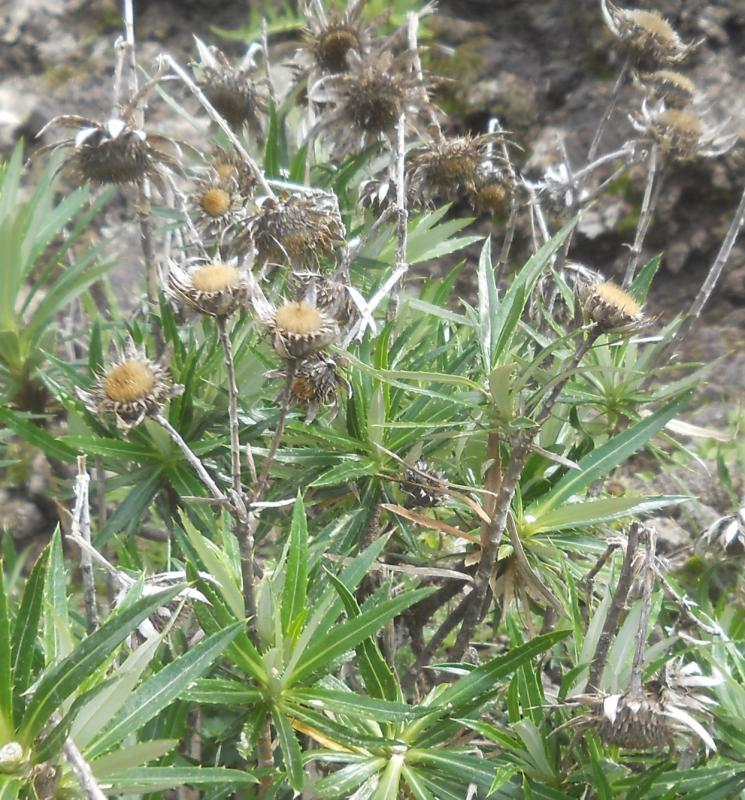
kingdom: Plantae
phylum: Tracheophyta
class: Magnoliopsida
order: Asterales
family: Asteraceae
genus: Carlina
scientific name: Carlina salicifolia
